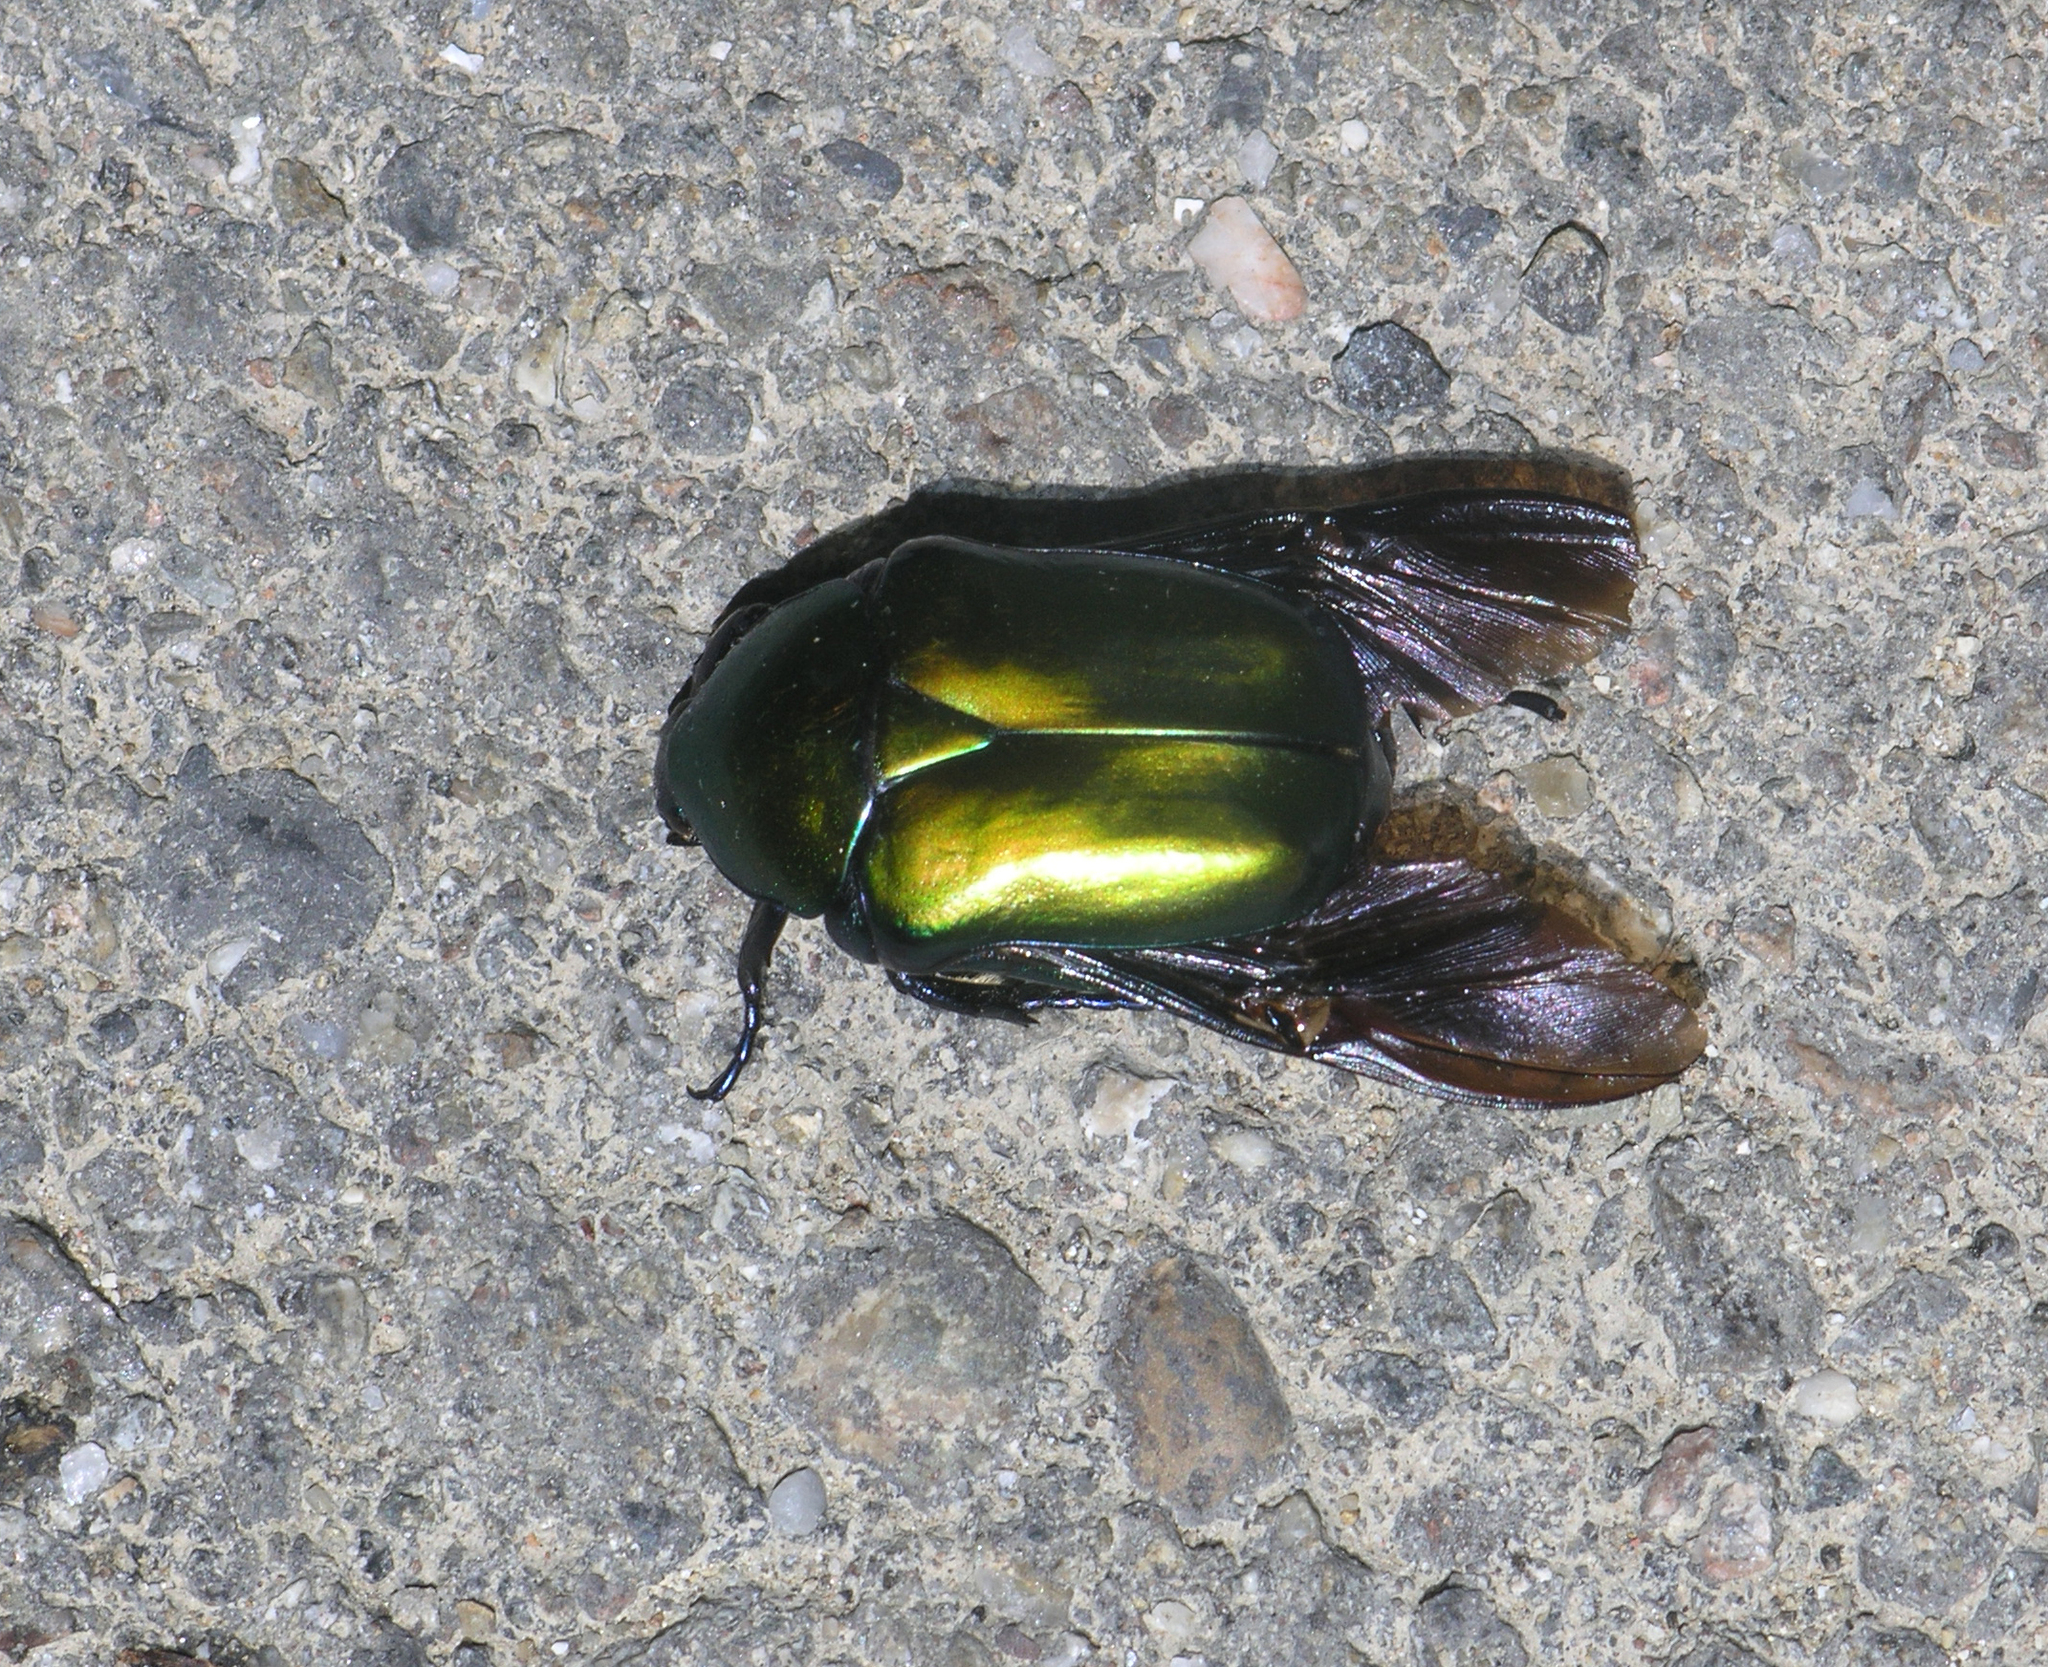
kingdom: Animalia
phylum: Arthropoda
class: Insecta
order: Coleoptera
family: Scarabaeidae
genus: Protaetia
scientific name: Protaetia speciosa
